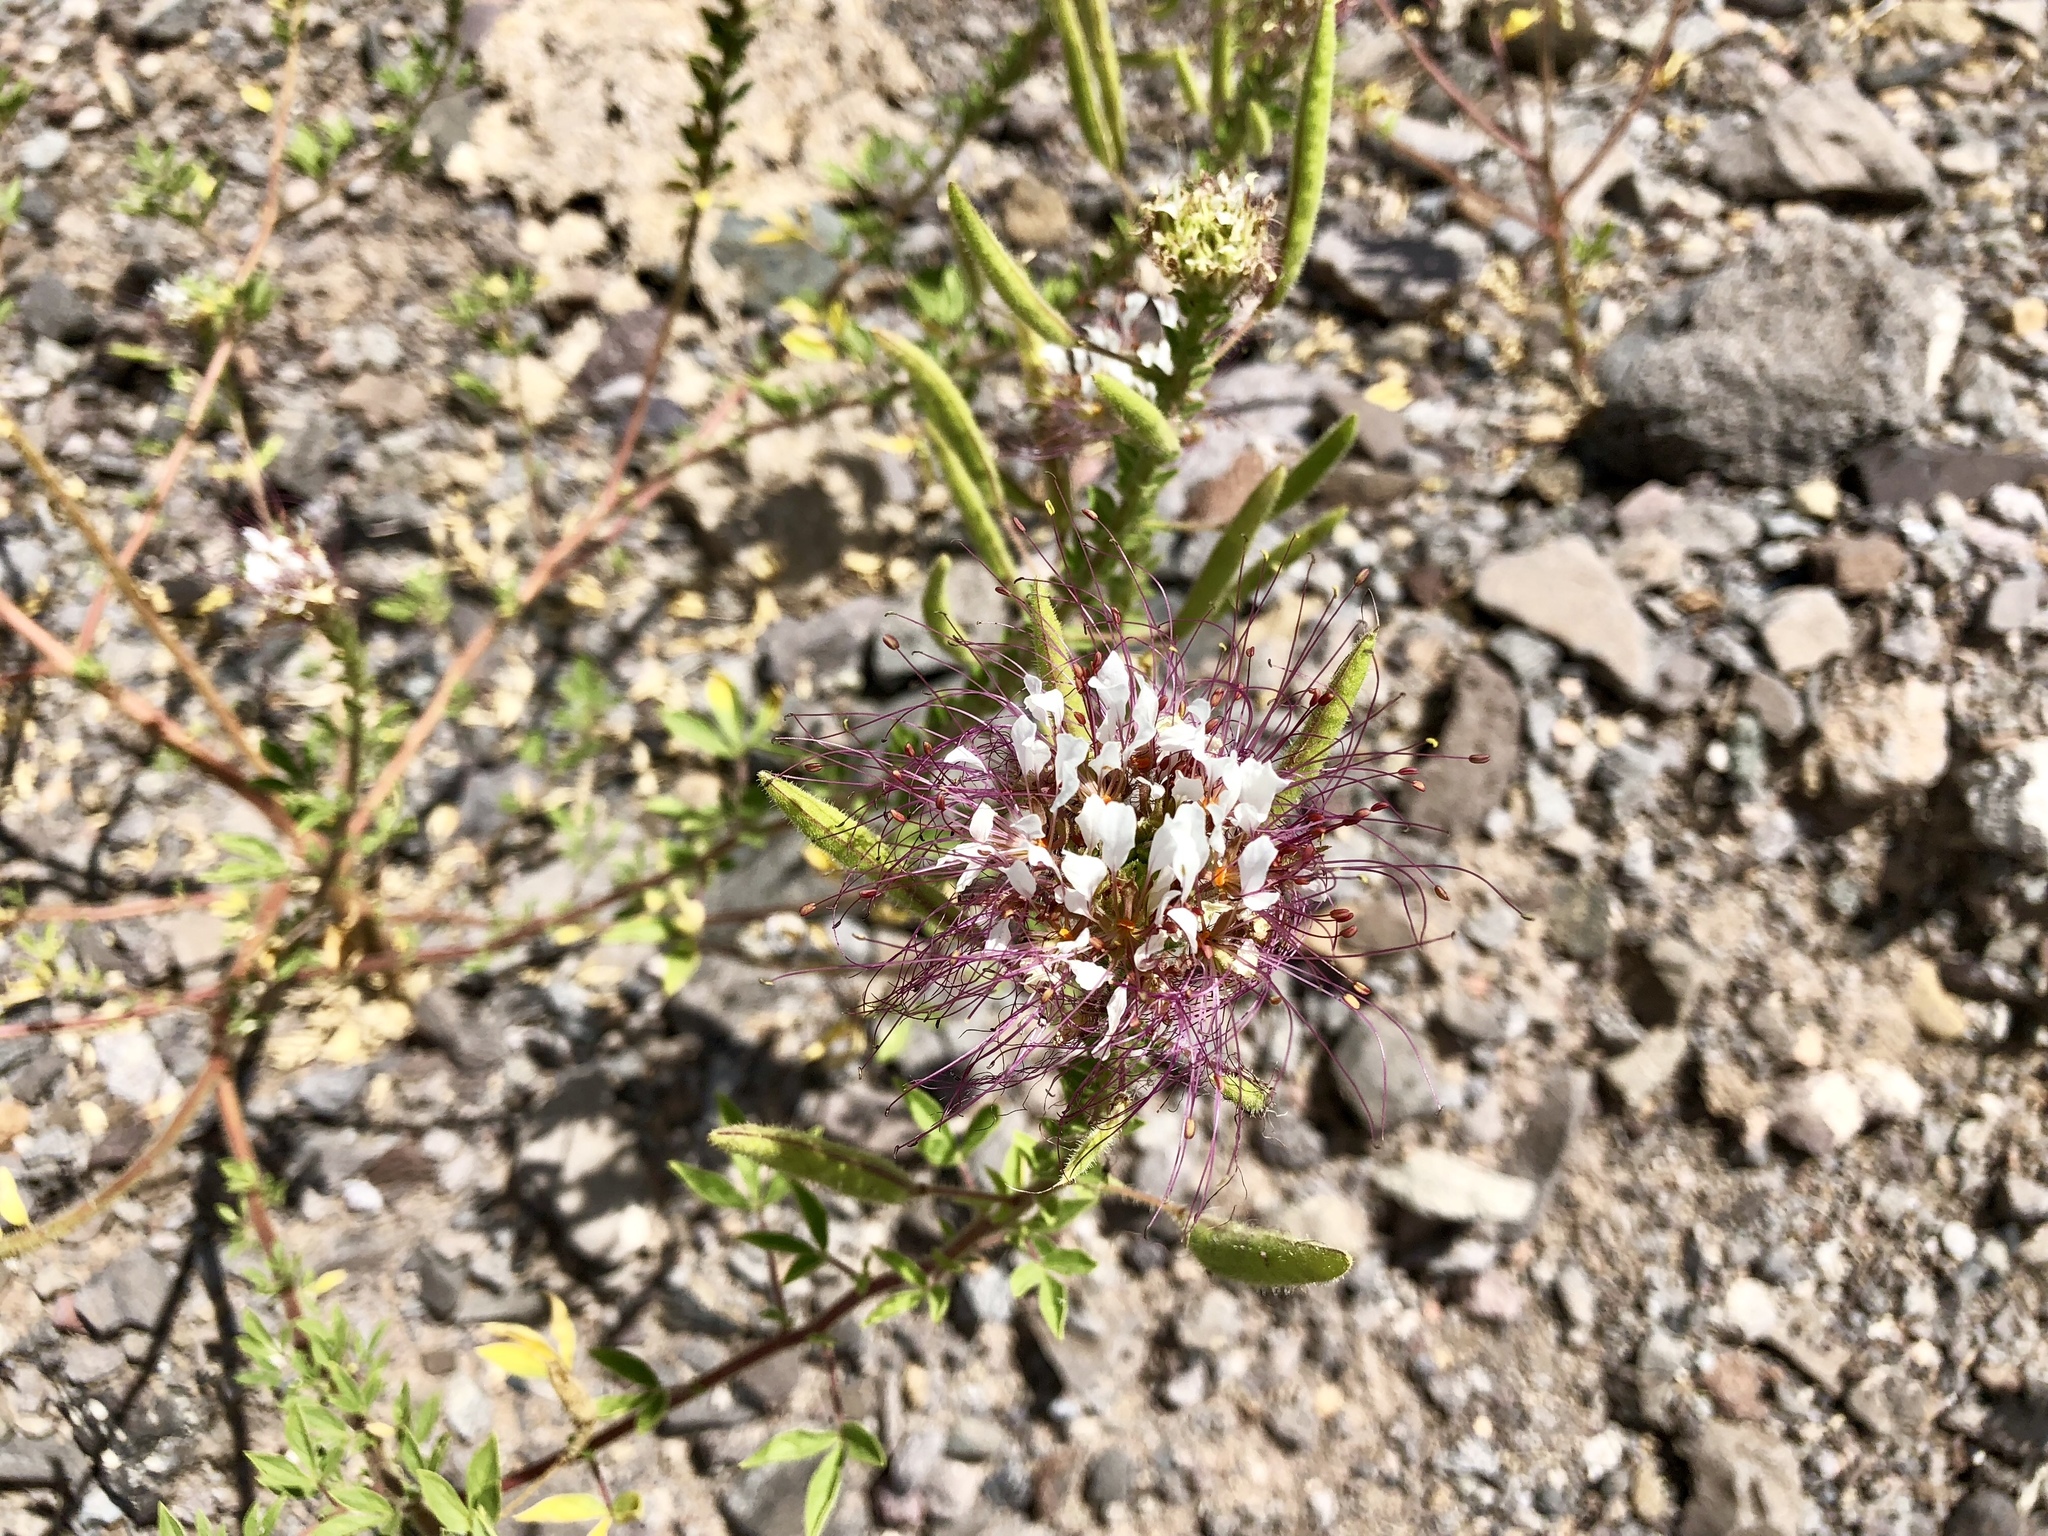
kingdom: Plantae
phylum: Tracheophyta
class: Magnoliopsida
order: Brassicales
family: Cleomaceae
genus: Polanisia
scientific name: Polanisia dodecandra
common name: Clammyweed
